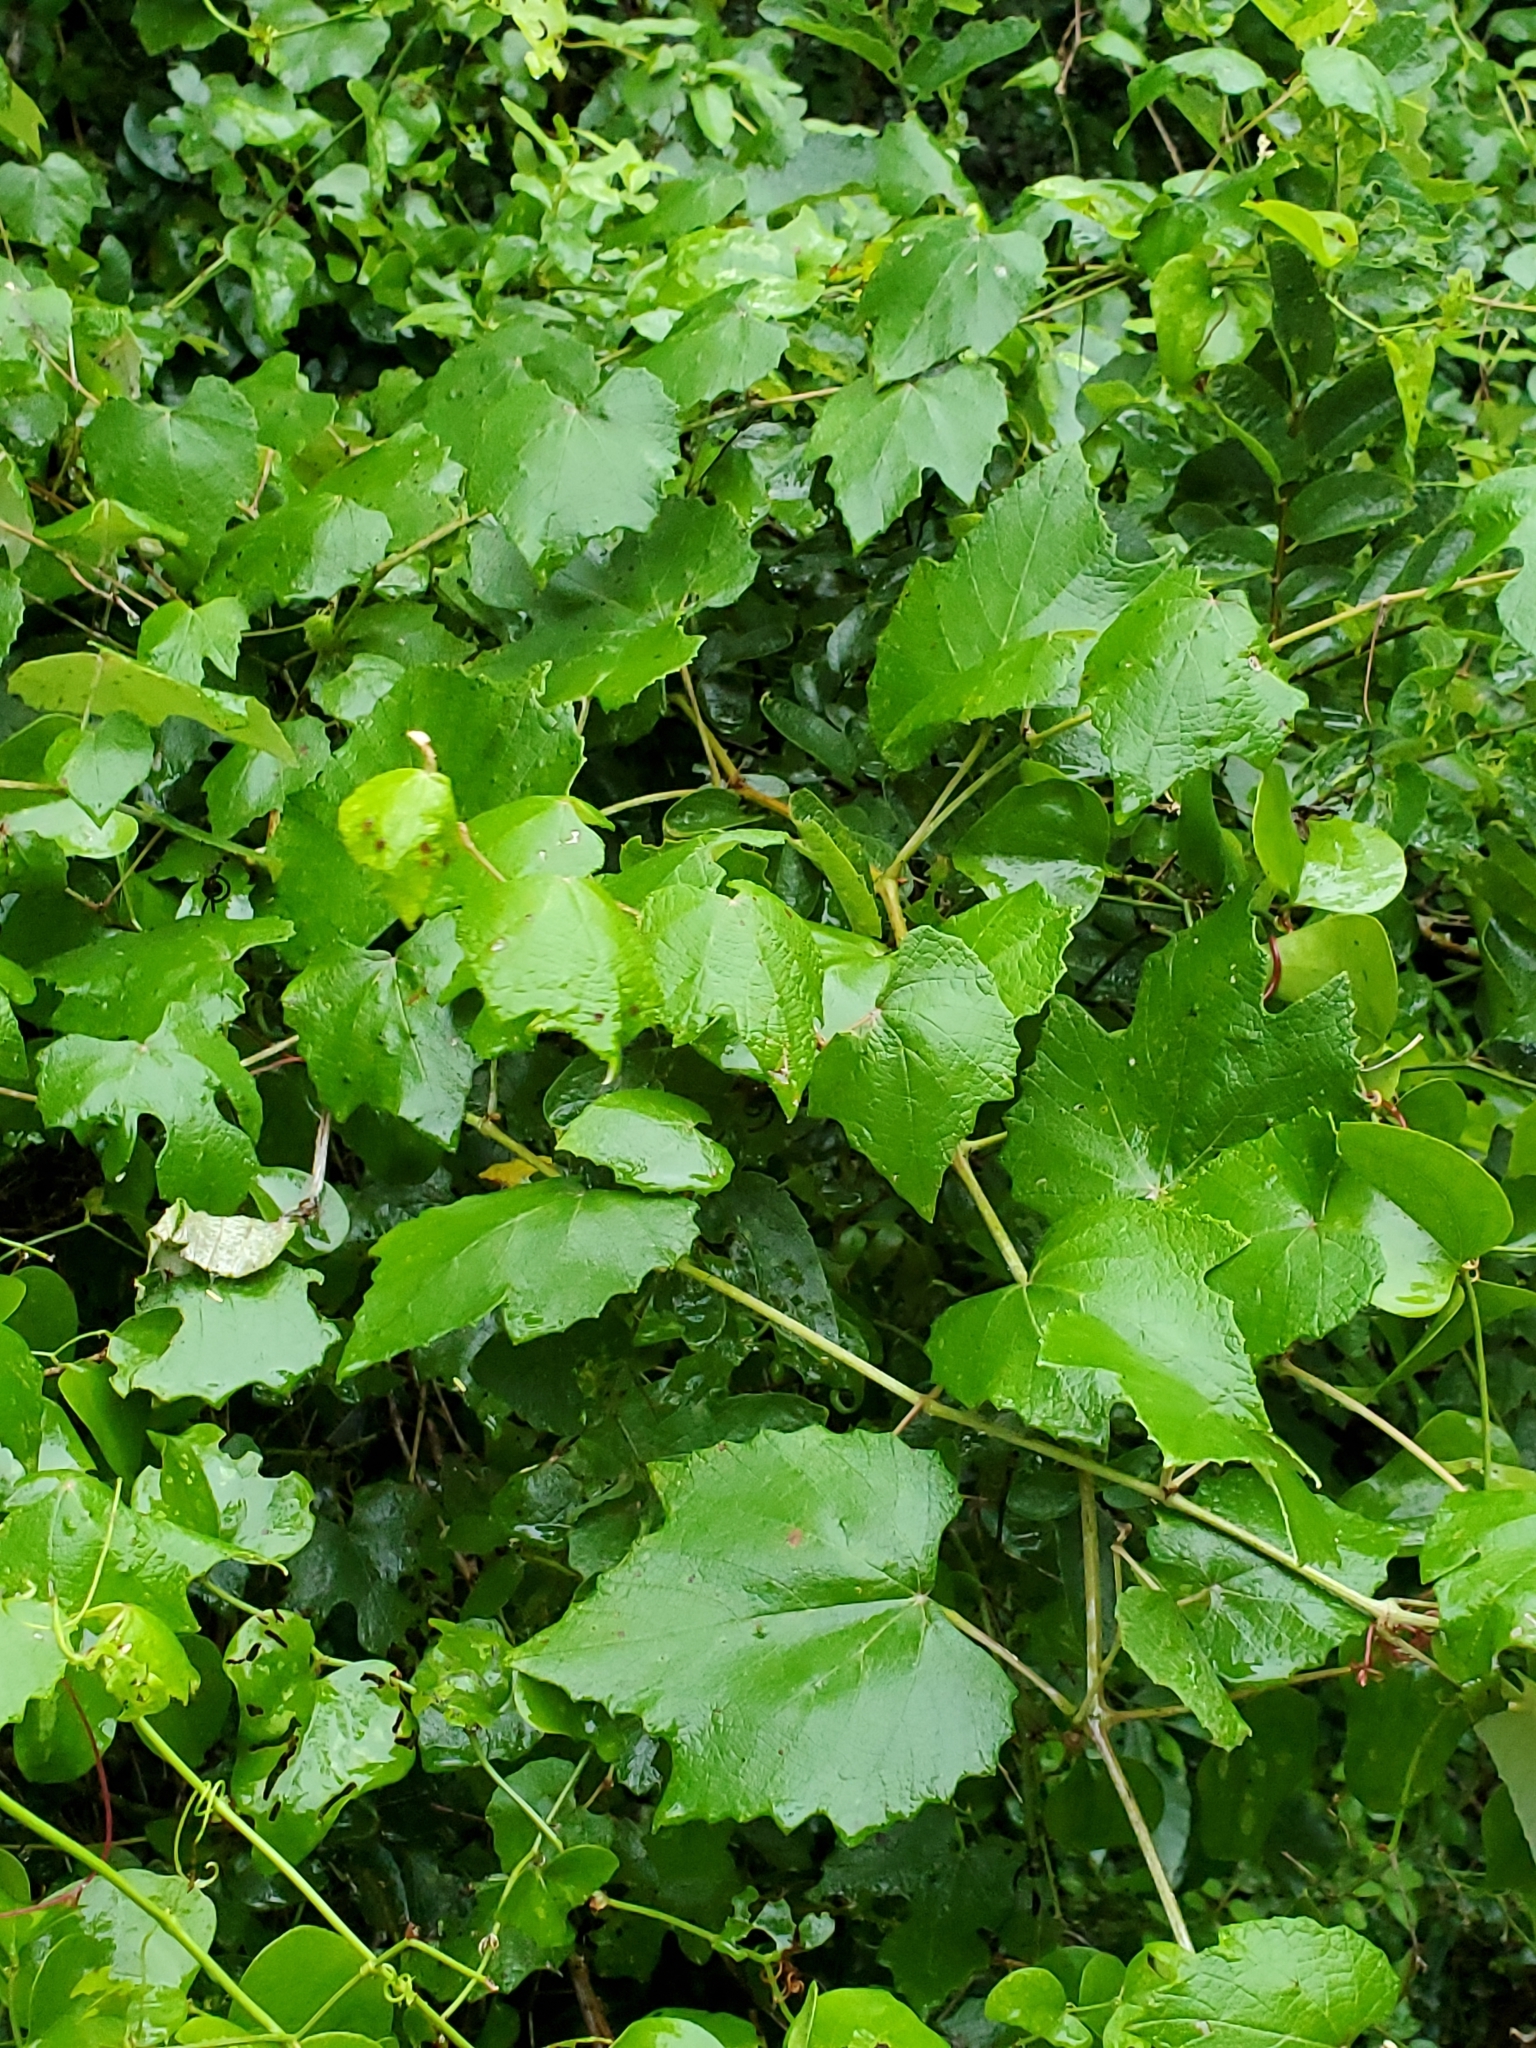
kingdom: Plantae
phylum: Tracheophyta
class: Magnoliopsida
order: Vitales
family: Vitaceae
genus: Vitis
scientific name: Vitis mustangensis
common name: Mustang grape
